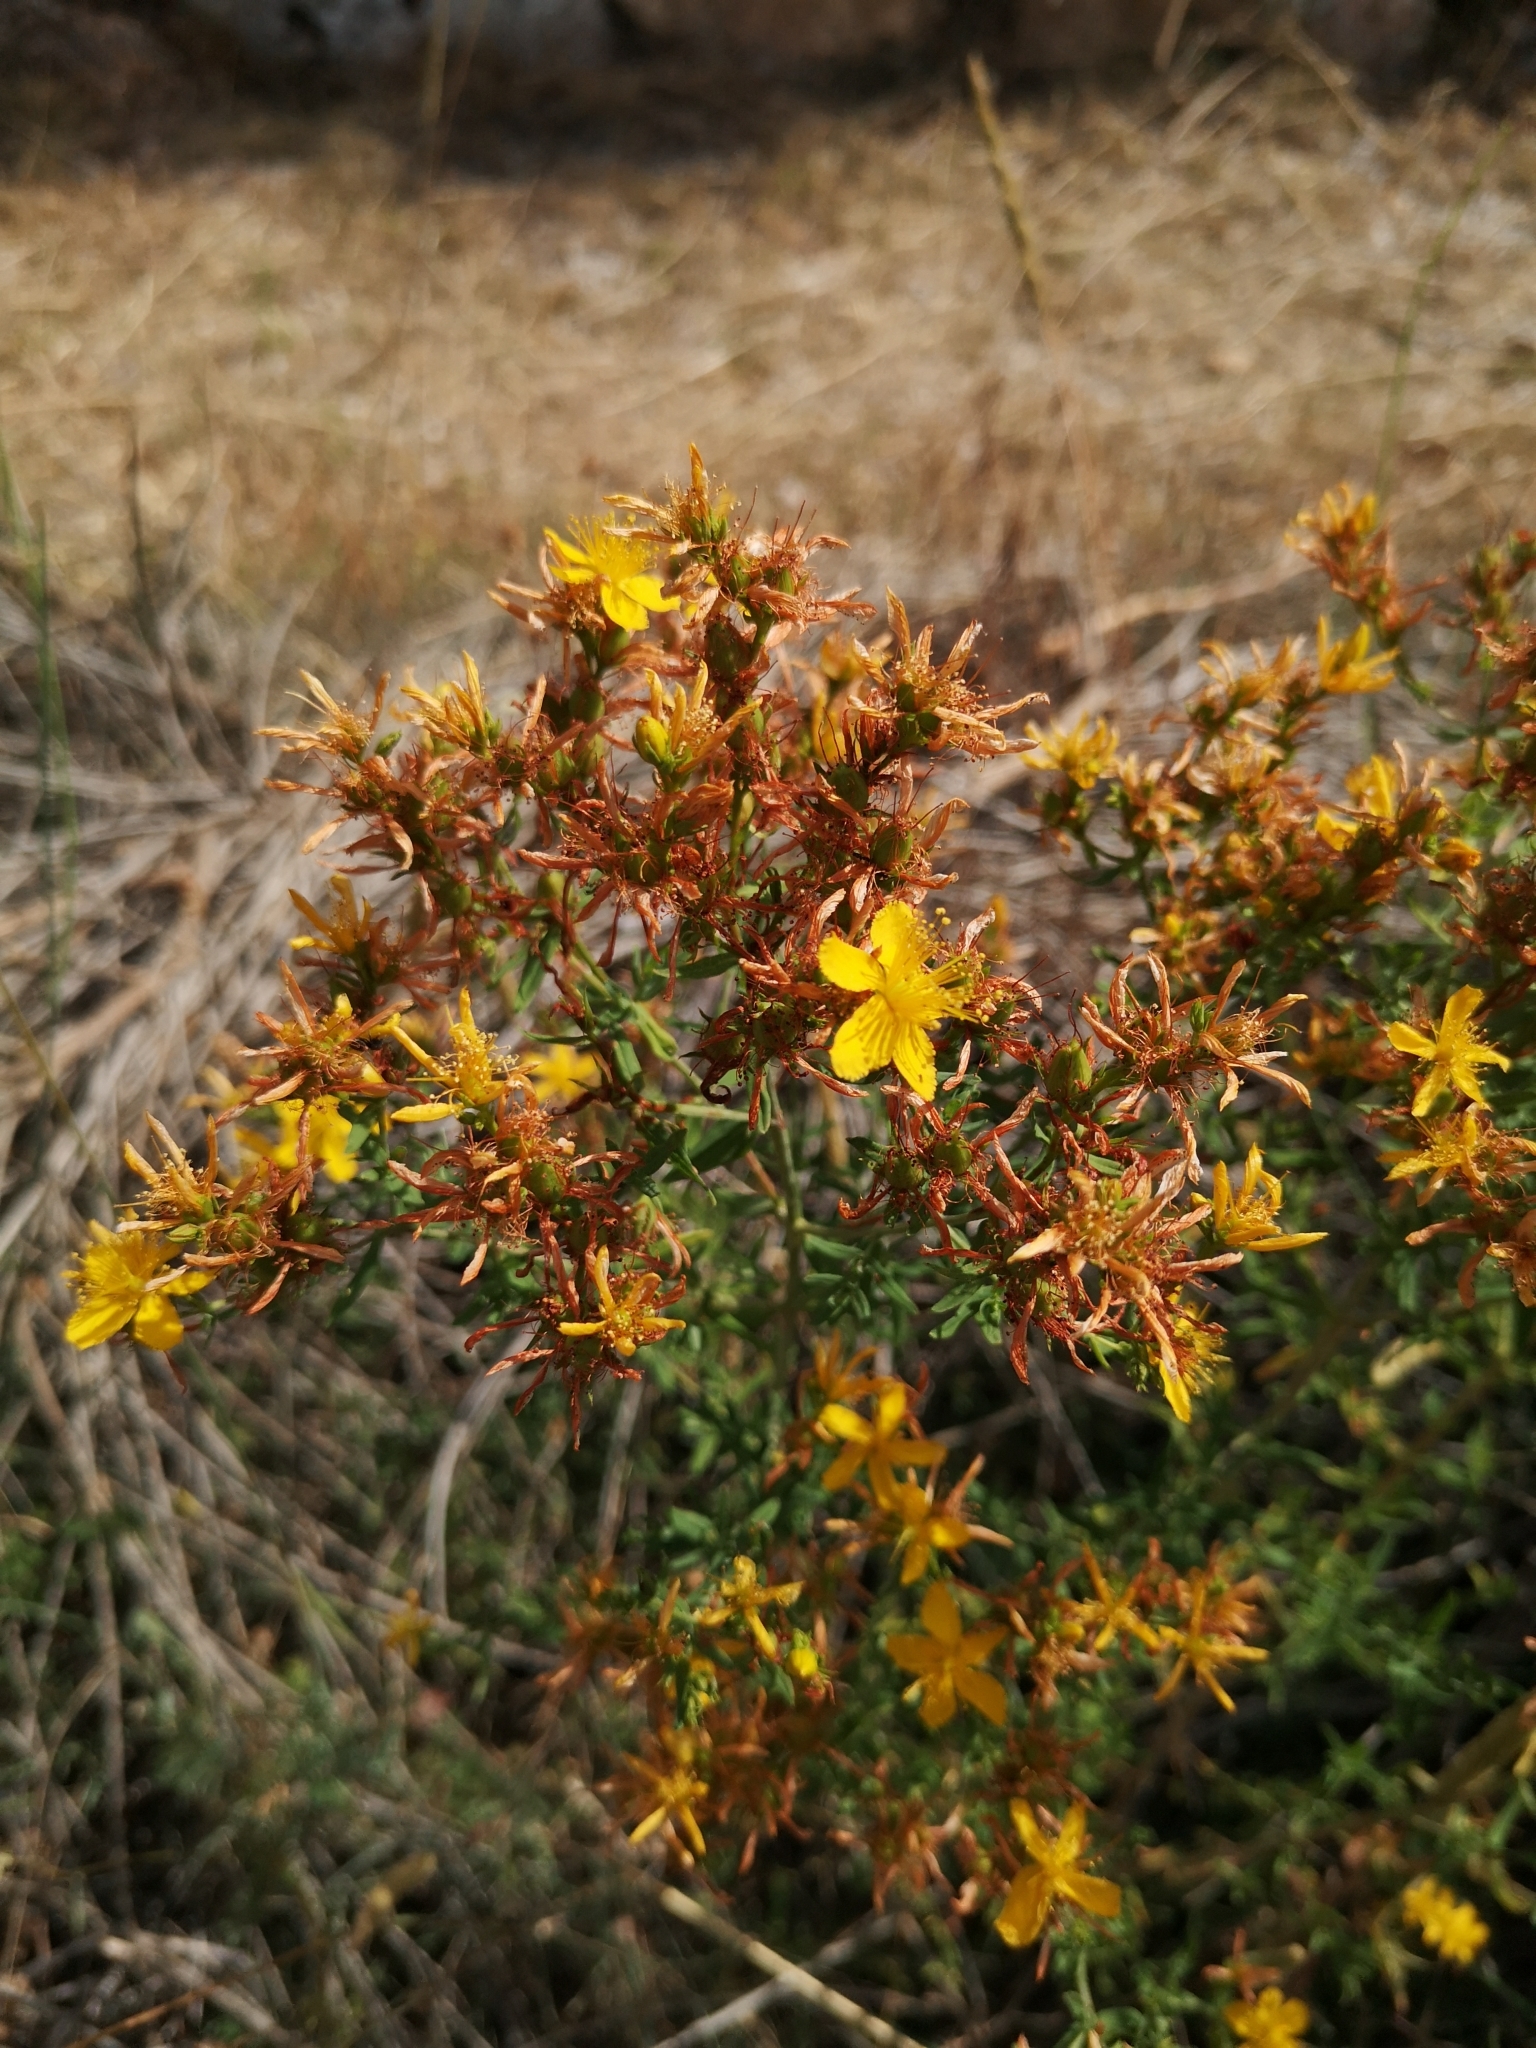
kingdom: Plantae
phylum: Tracheophyta
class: Magnoliopsida
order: Malpighiales
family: Hypericaceae
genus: Hypericum
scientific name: Hypericum perforatum
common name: Common st. johnswort
